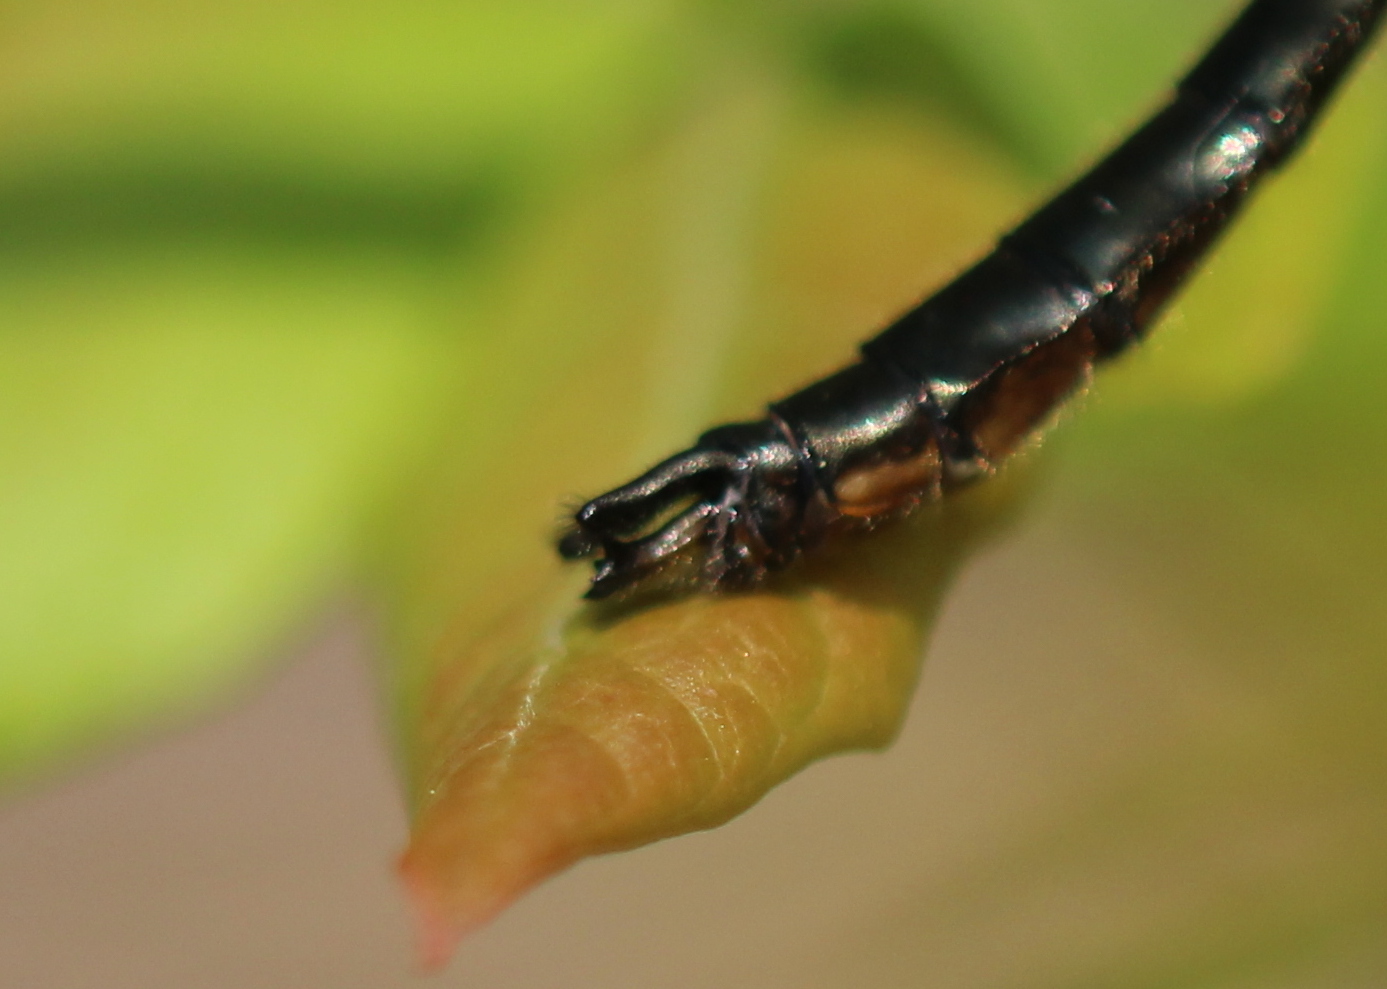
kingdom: Animalia
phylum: Arthropoda
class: Insecta
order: Odonata
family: Corduliidae
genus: Cordulia
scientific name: Cordulia shurtleffii
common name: American emerald
